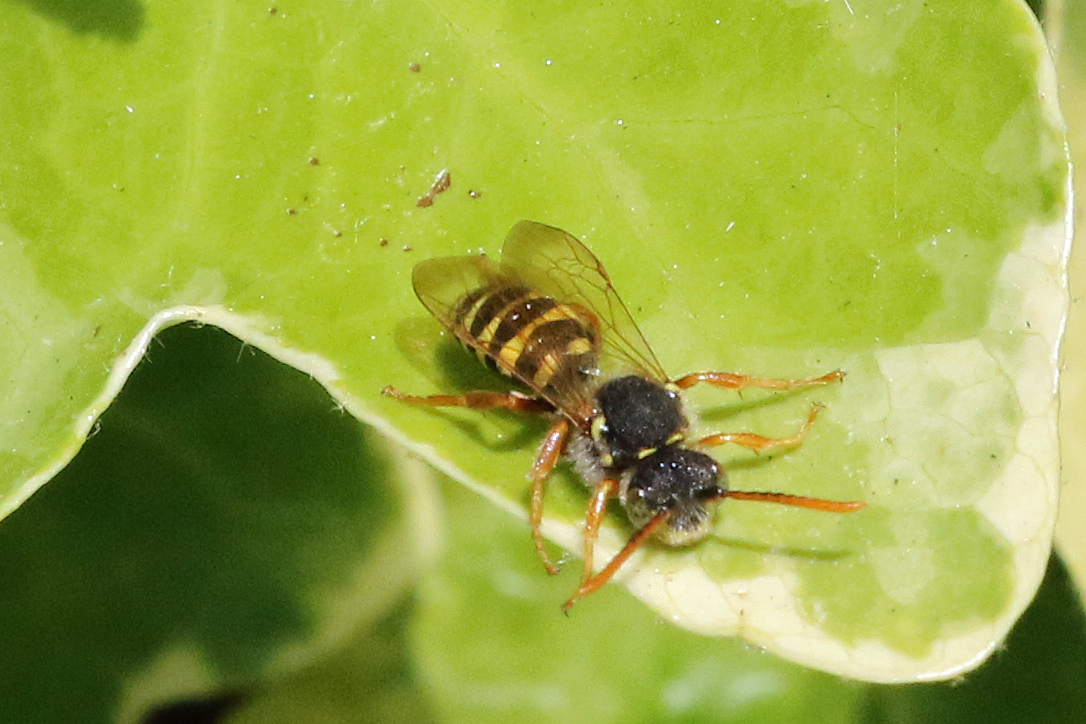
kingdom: Animalia
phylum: Arthropoda
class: Insecta
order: Hymenoptera
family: Apidae
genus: Nomada
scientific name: Nomada goodeniana
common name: Gooden's nomad bee
